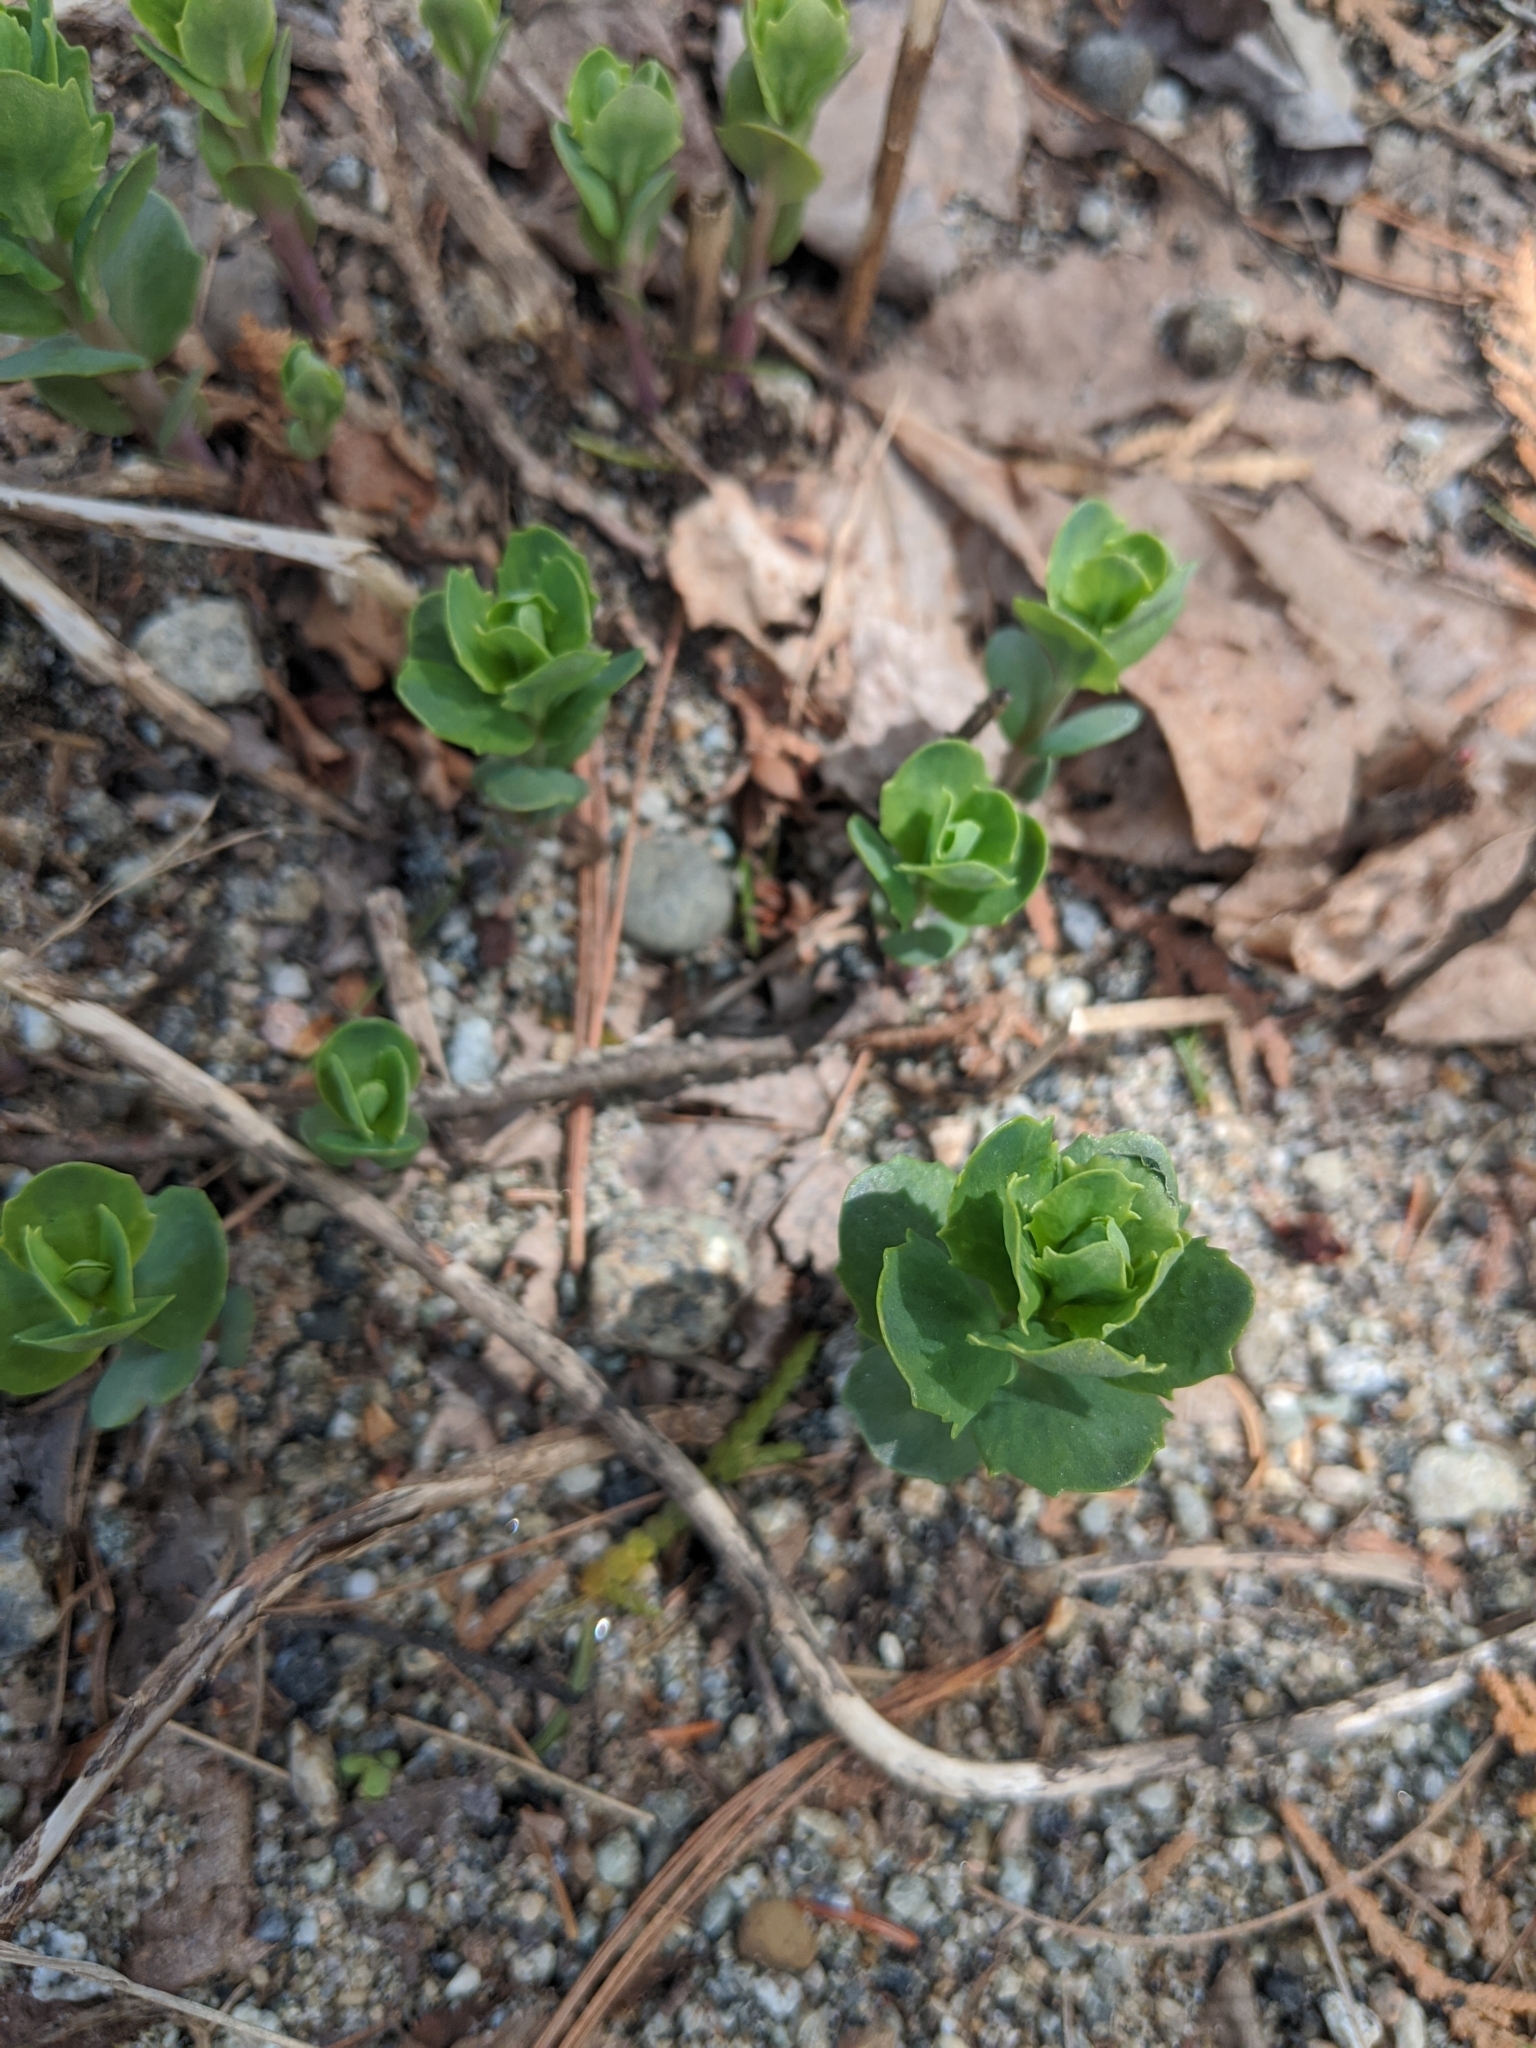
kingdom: Plantae
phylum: Tracheophyta
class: Magnoliopsida
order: Saxifragales
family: Crassulaceae
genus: Hylotelephium
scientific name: Hylotelephium telephium
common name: Live-forever
